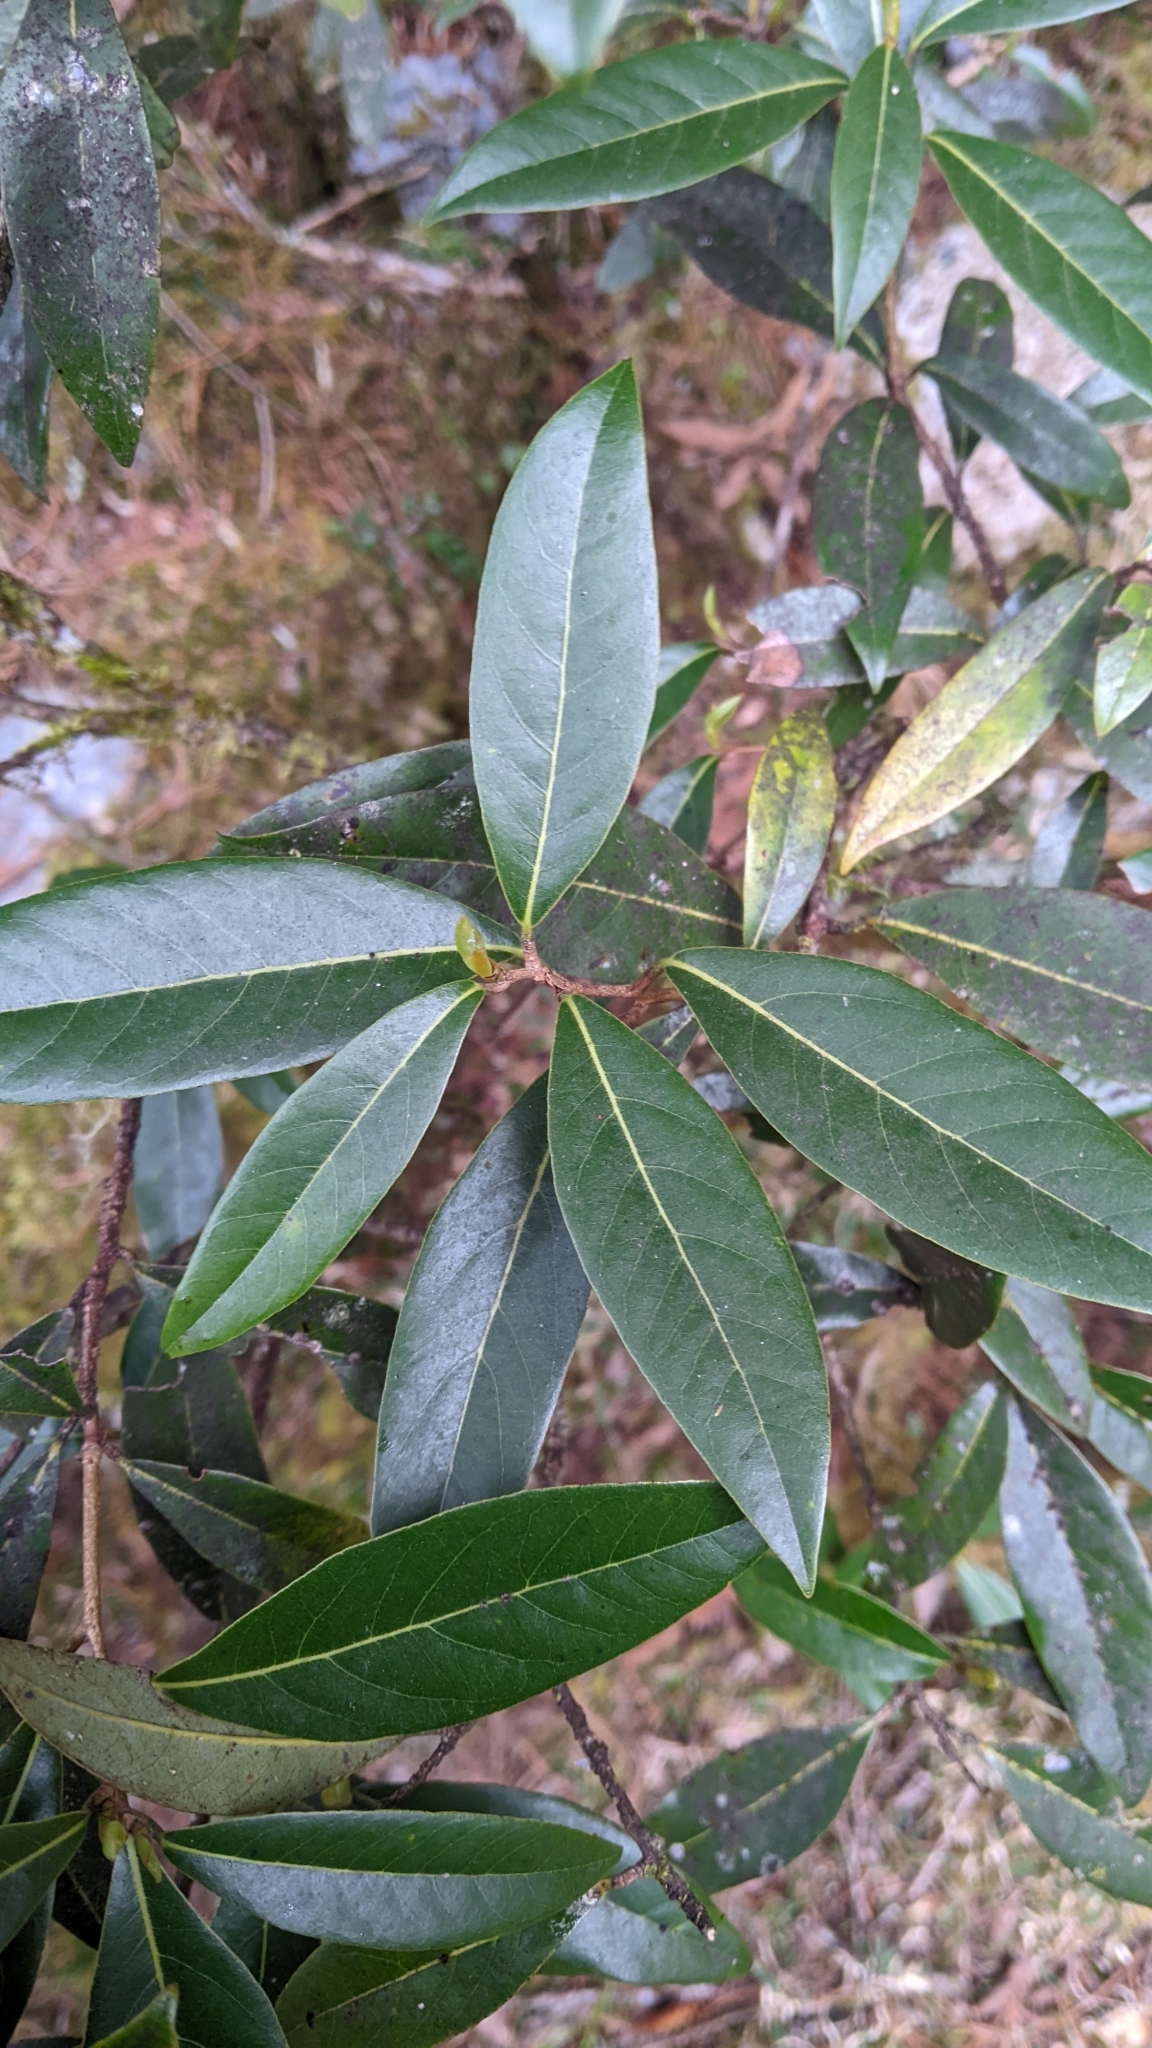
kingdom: Plantae
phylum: Tracheophyta
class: Magnoliopsida
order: Laurales
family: Lauraceae
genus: Litsea
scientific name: Litsea morrisonensis
